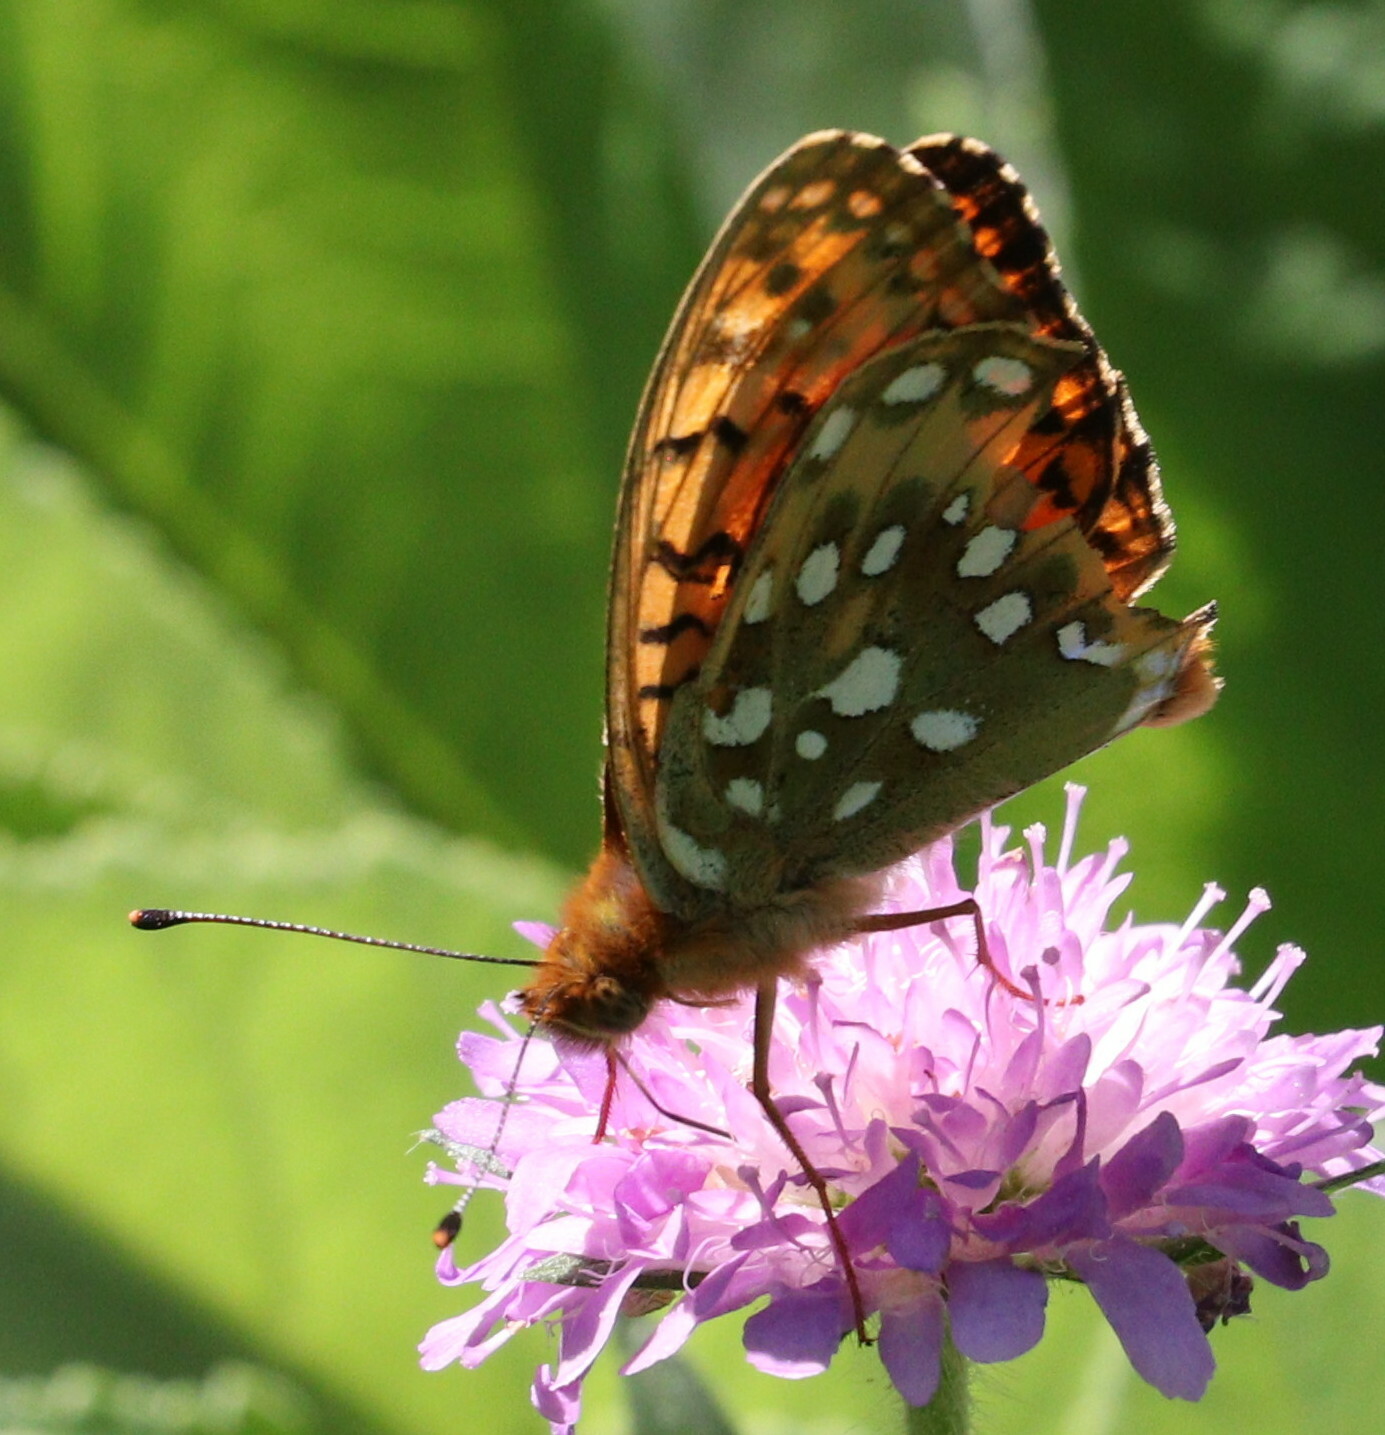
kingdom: Animalia
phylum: Arthropoda
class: Insecta
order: Lepidoptera
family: Nymphalidae
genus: Speyeria
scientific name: Speyeria aglaja
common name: Dark green fritillary
